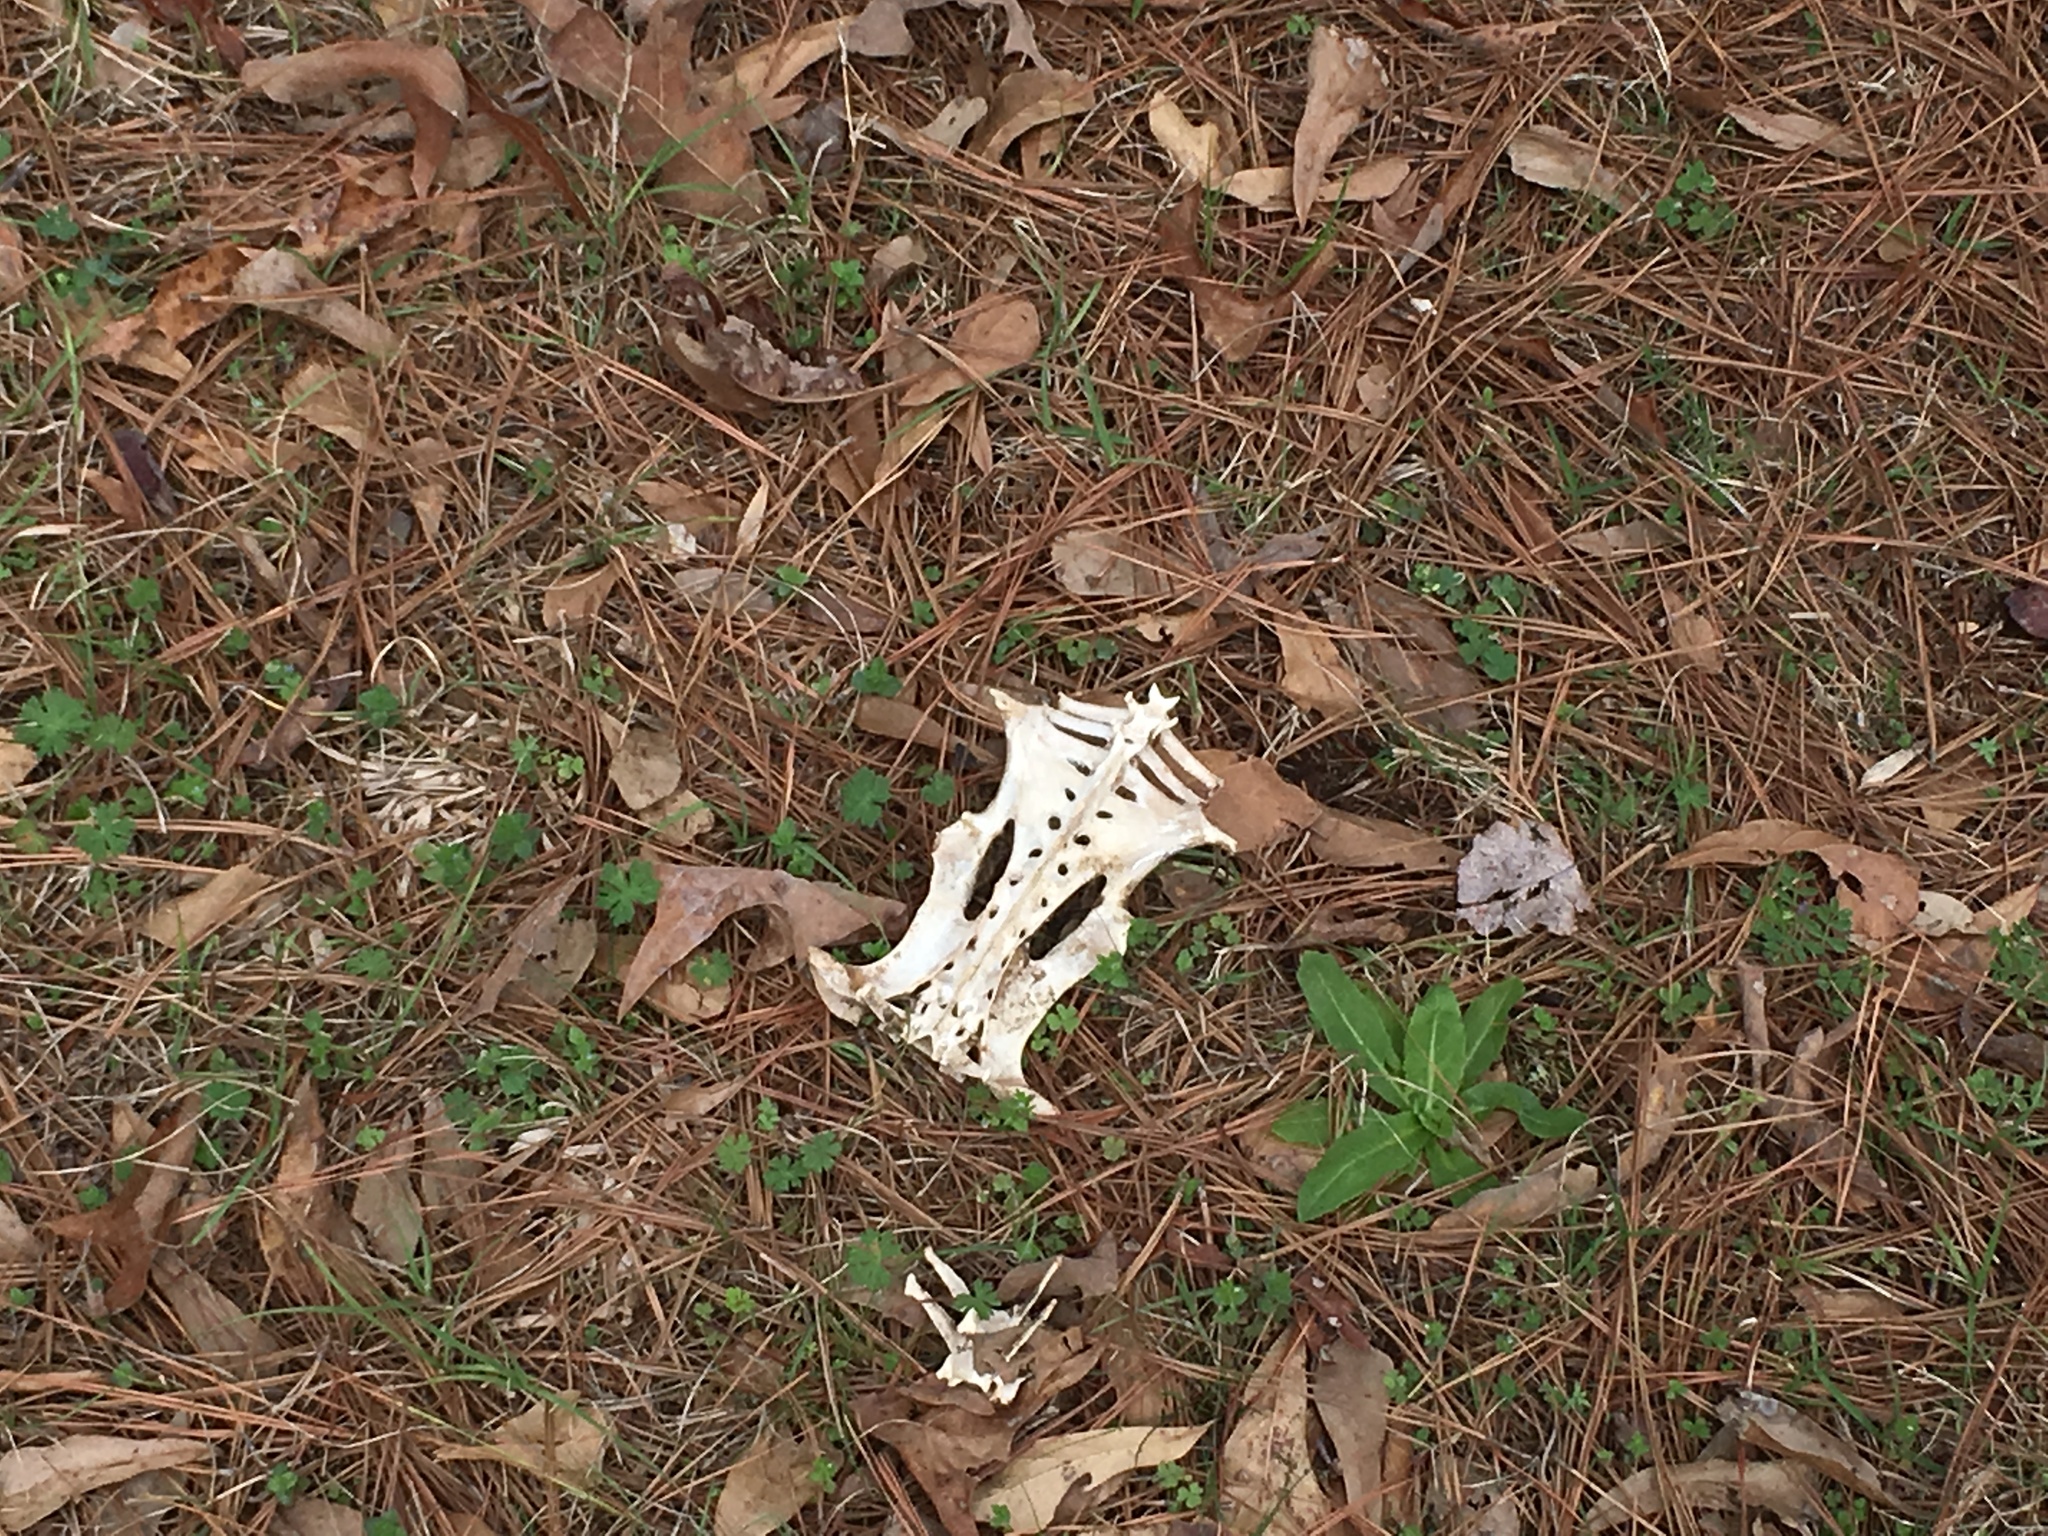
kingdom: Animalia
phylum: Chordata
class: Mammalia
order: Cingulata
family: Dasypodidae
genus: Dasypus
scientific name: Dasypus novemcinctus
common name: Nine-banded armadillo
